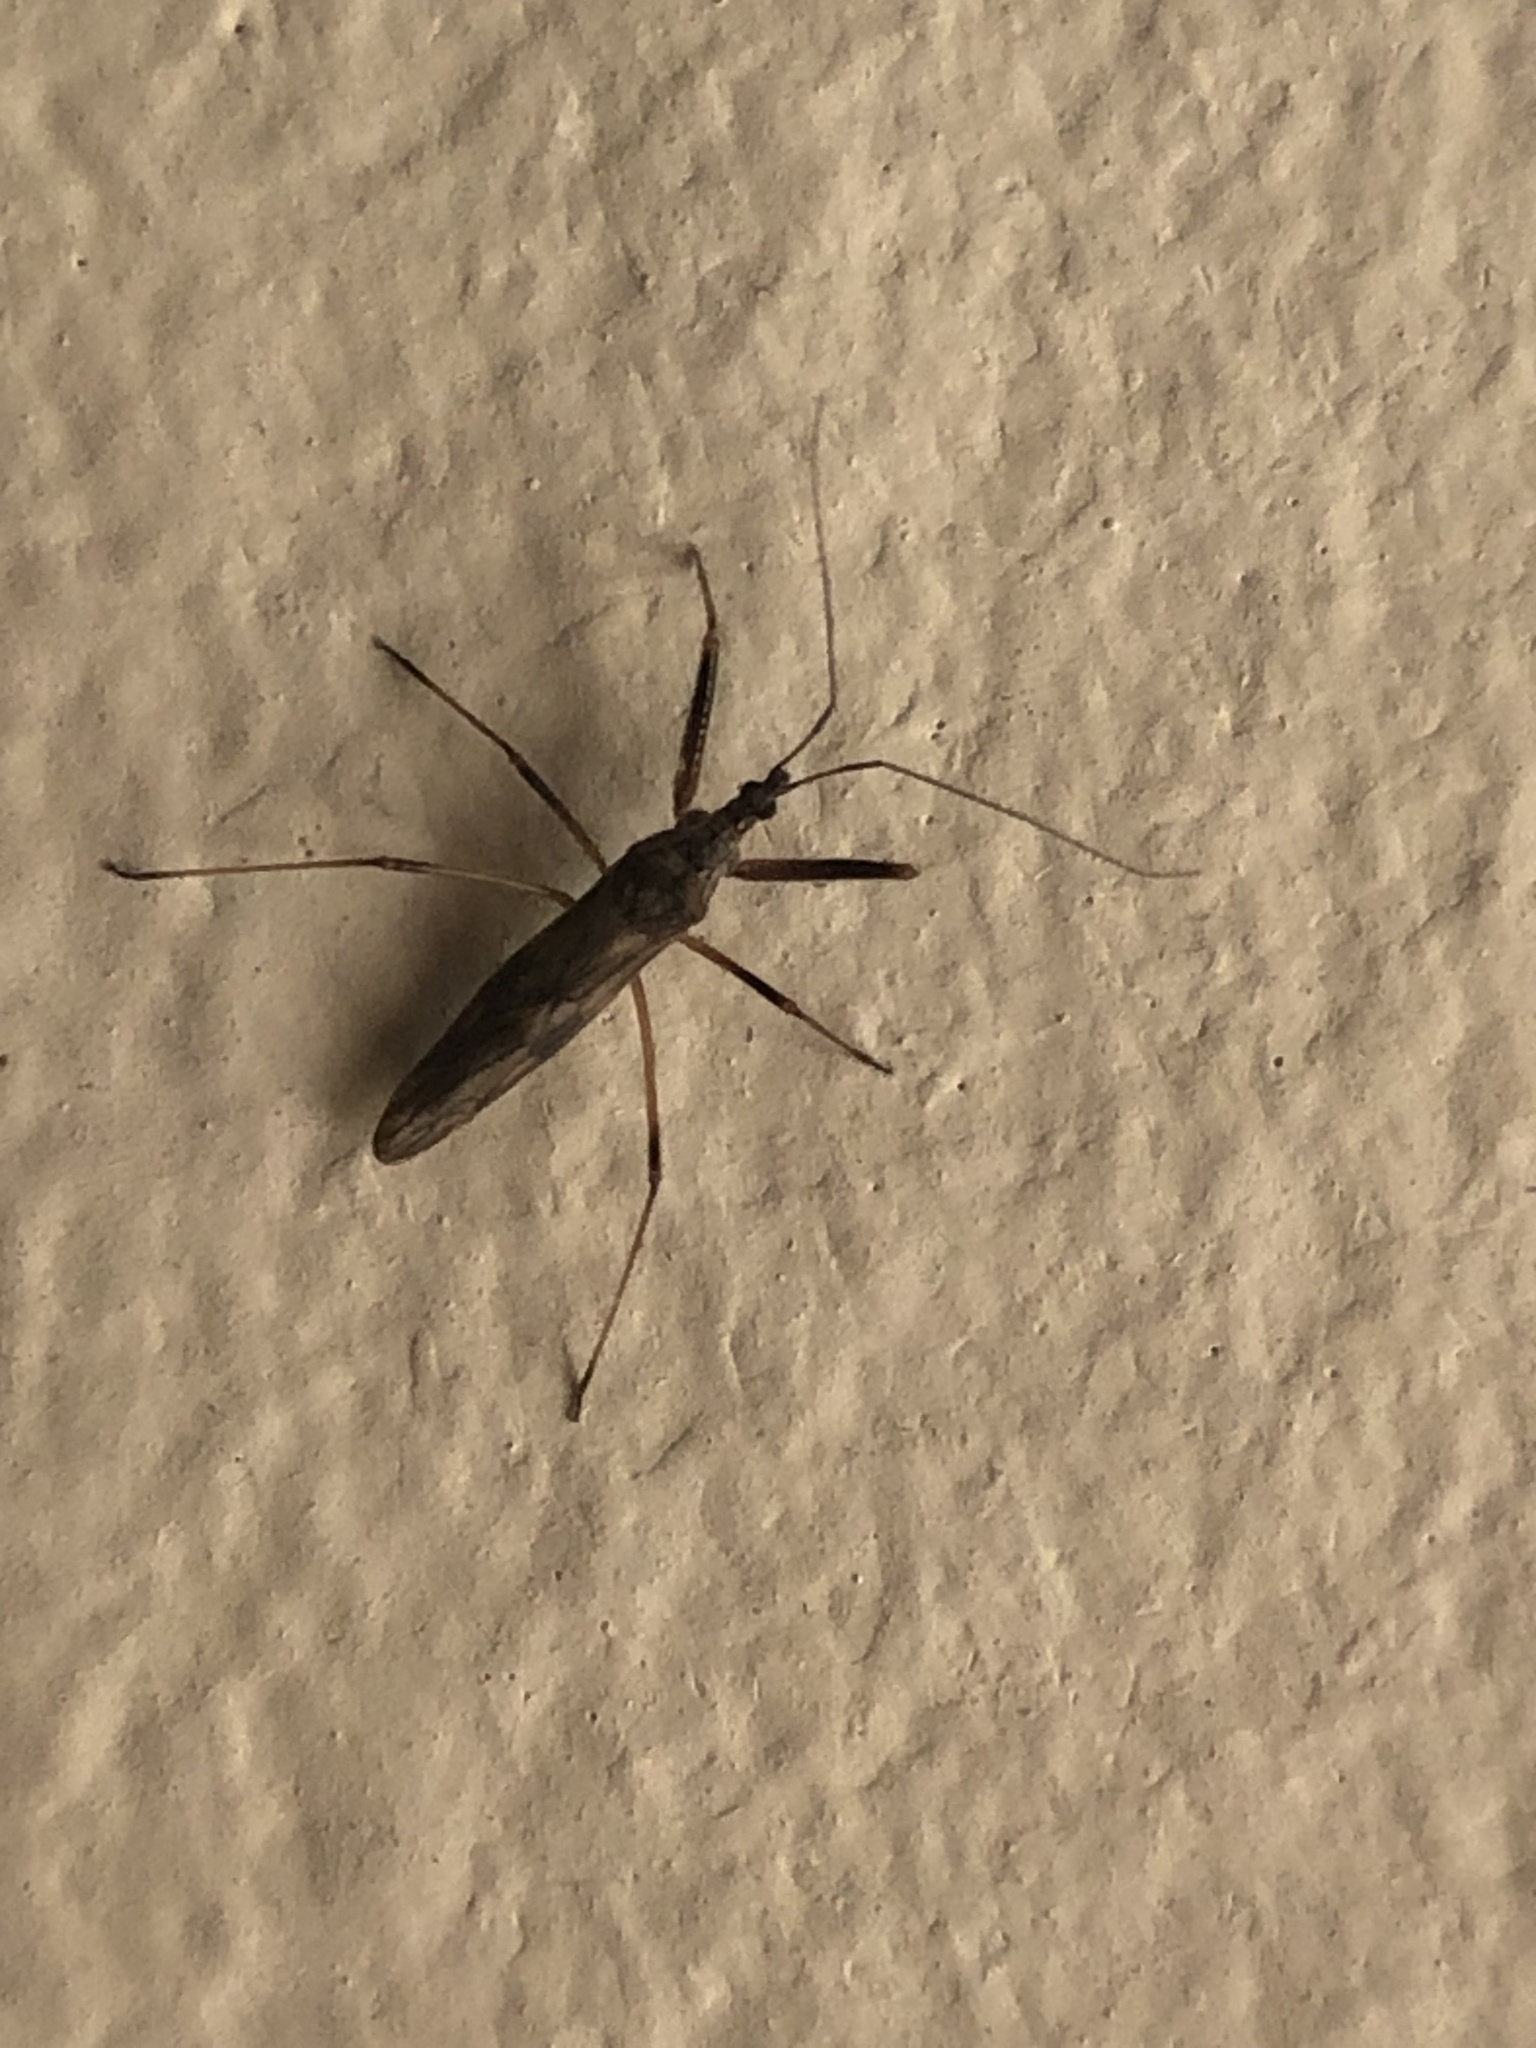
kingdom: Animalia
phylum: Arthropoda
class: Insecta
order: Hemiptera
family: Nabidae
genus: Metatropiphorus
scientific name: Metatropiphorus belfragii
